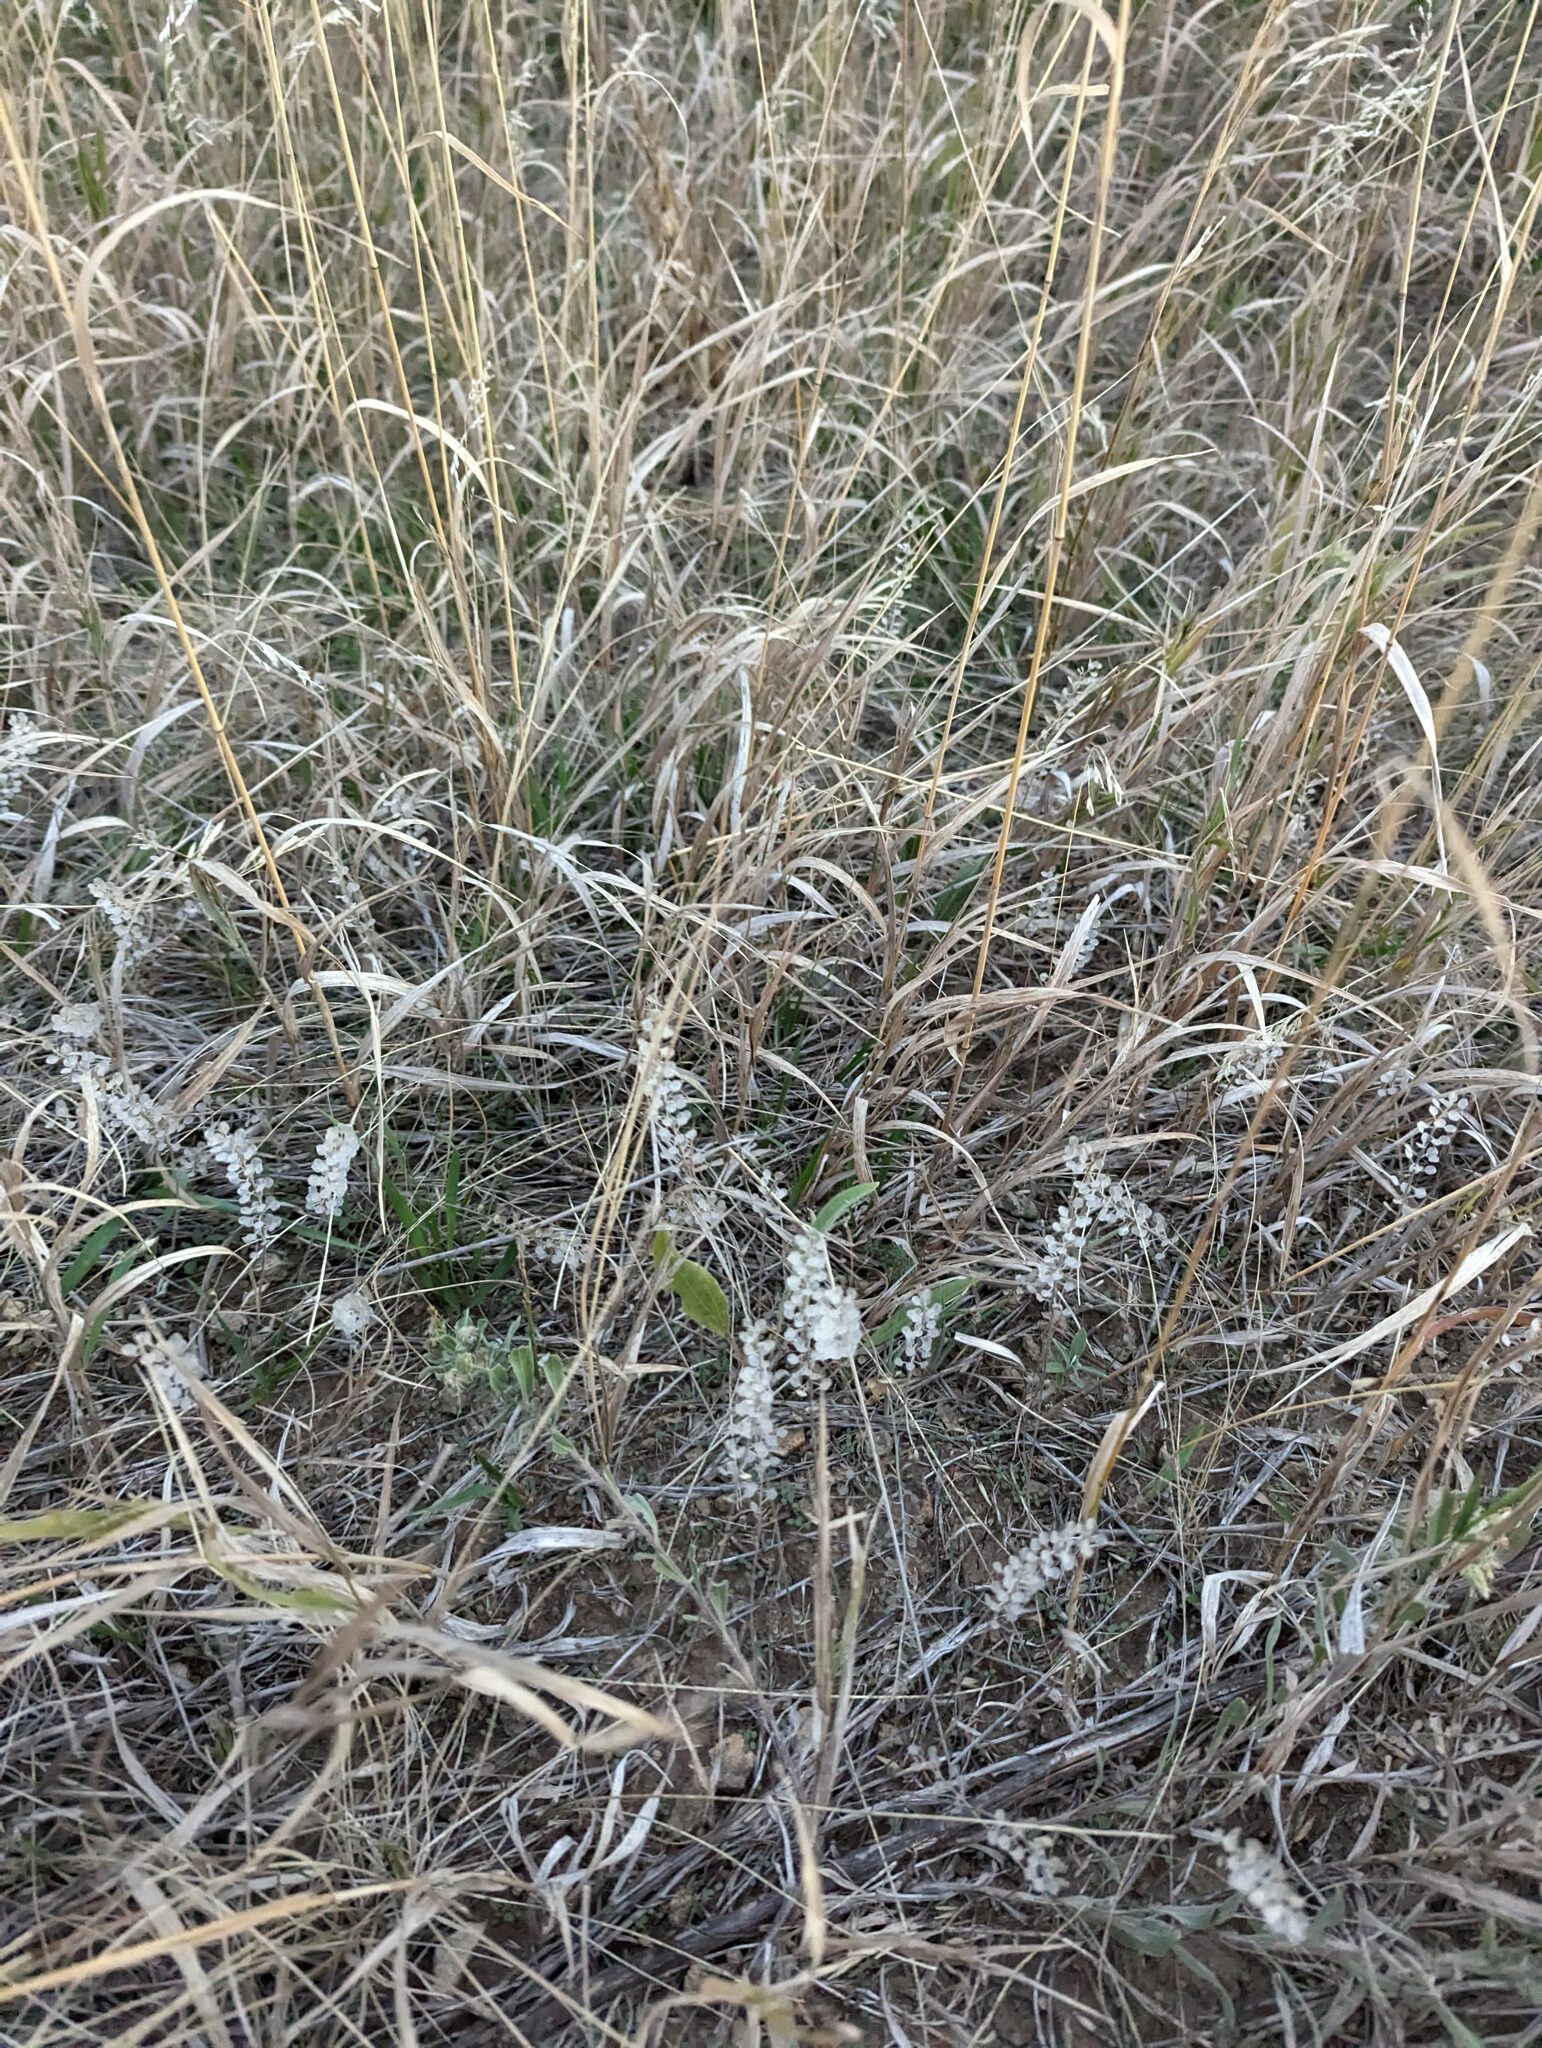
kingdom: Plantae
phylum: Tracheophyta
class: Magnoliopsida
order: Brassicales
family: Brassicaceae
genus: Alyssum
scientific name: Alyssum turkestanicum
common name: Desert alyssum
